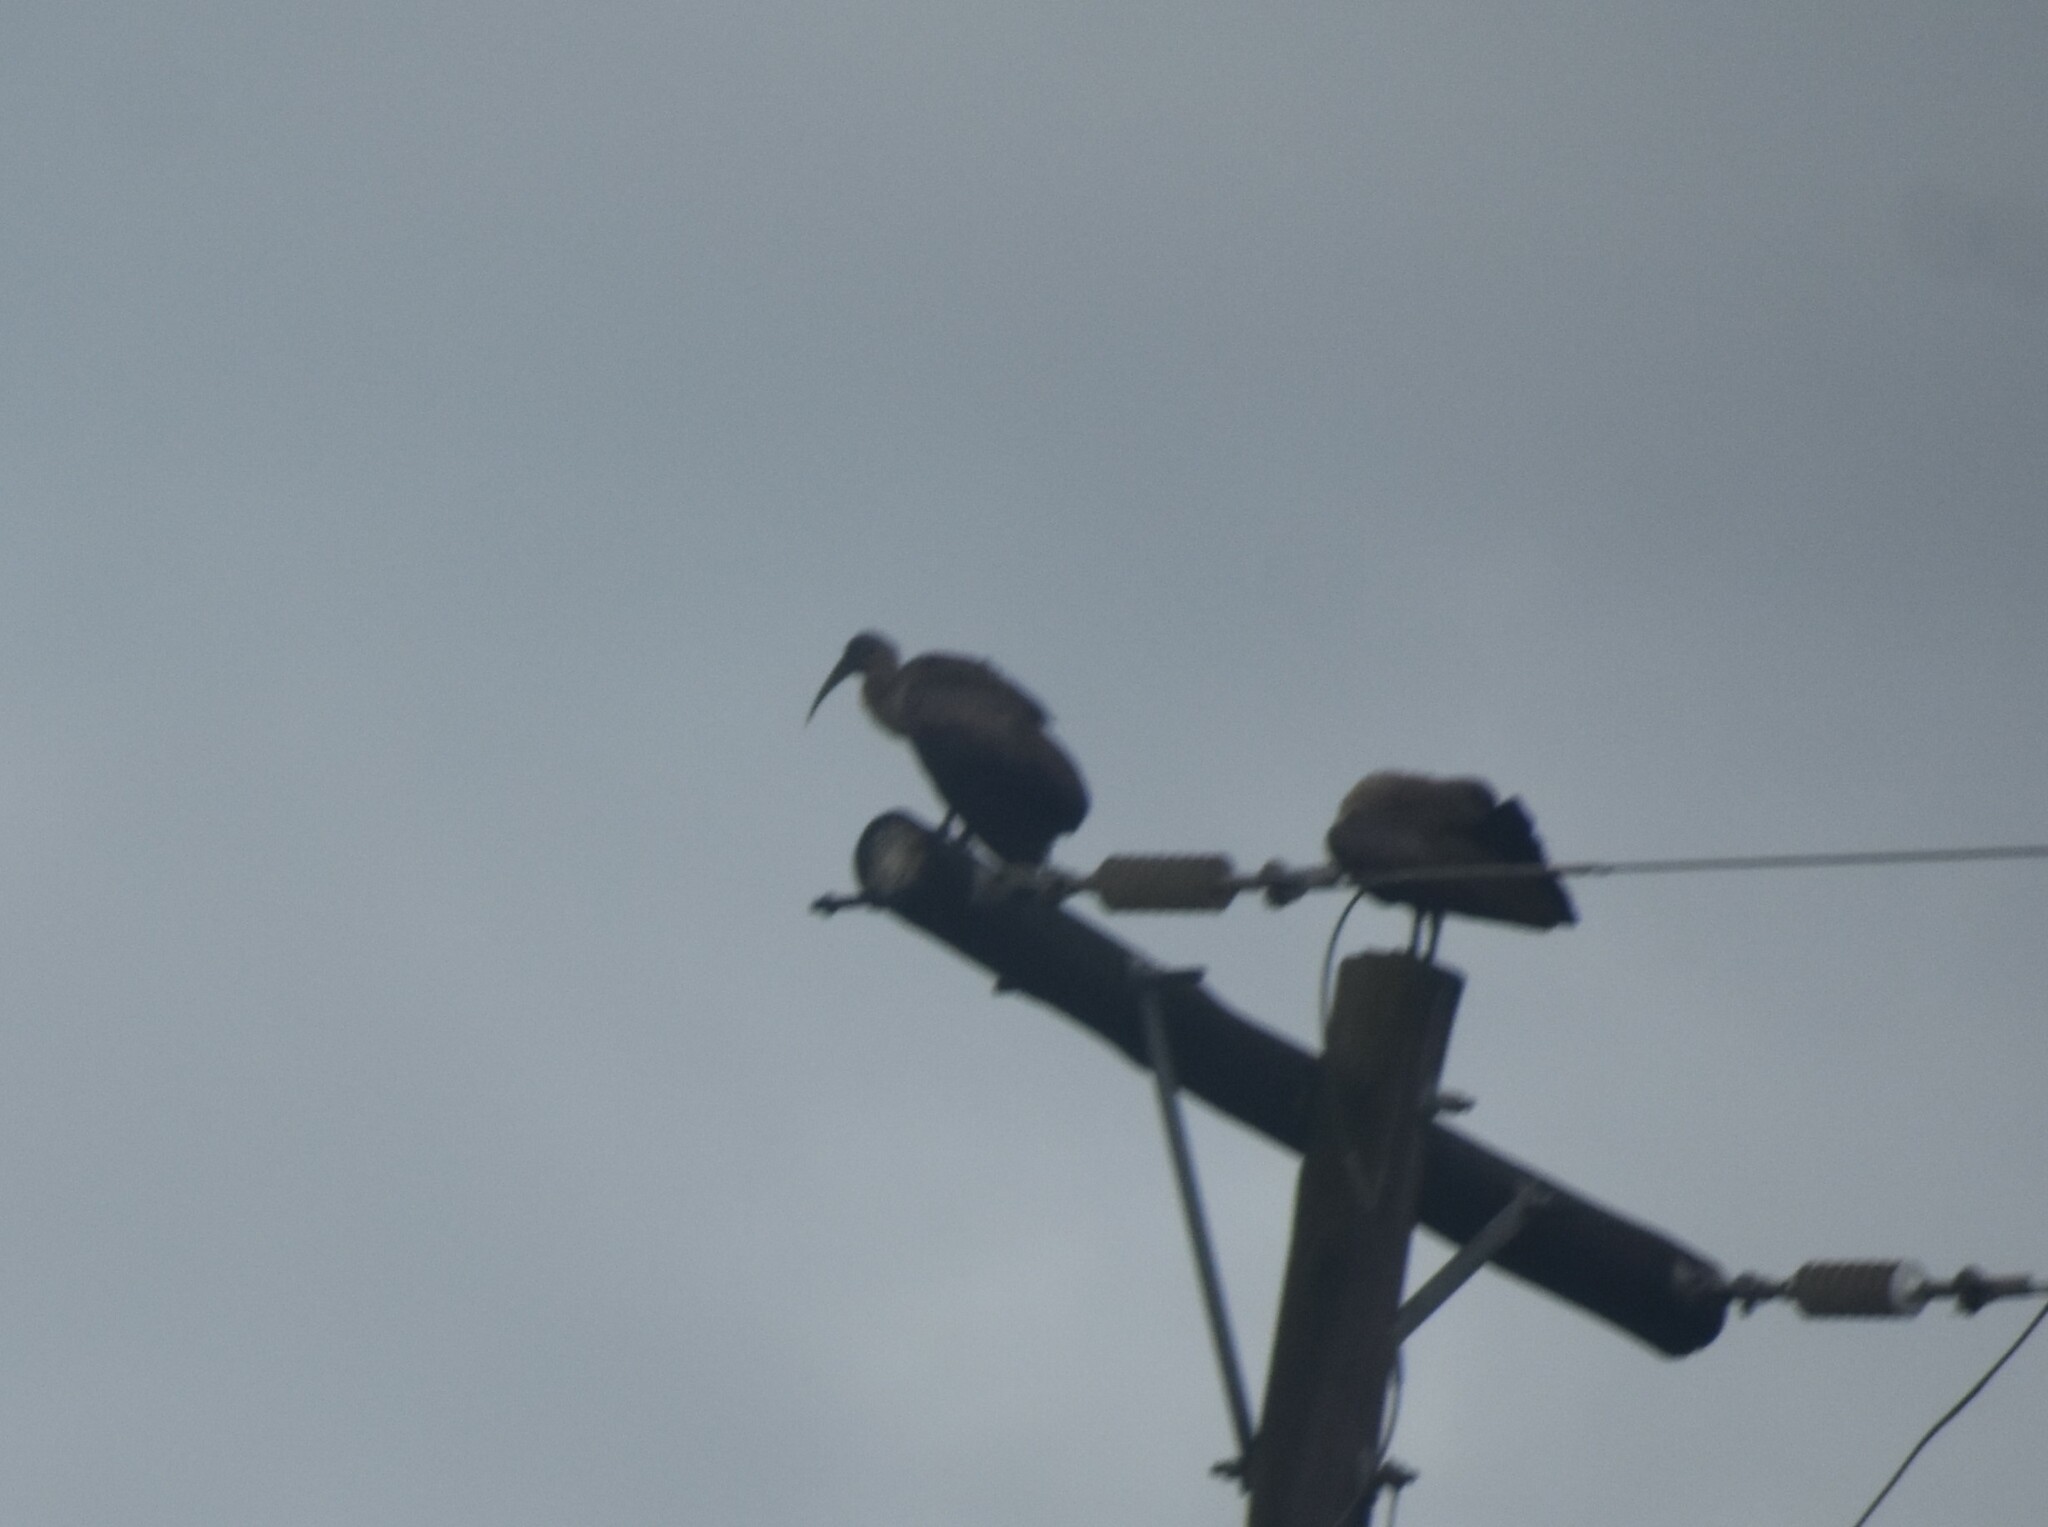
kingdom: Animalia
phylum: Chordata
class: Aves
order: Pelecaniformes
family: Threskiornithidae
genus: Bostrychia
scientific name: Bostrychia hagedash
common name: Hadada ibis
